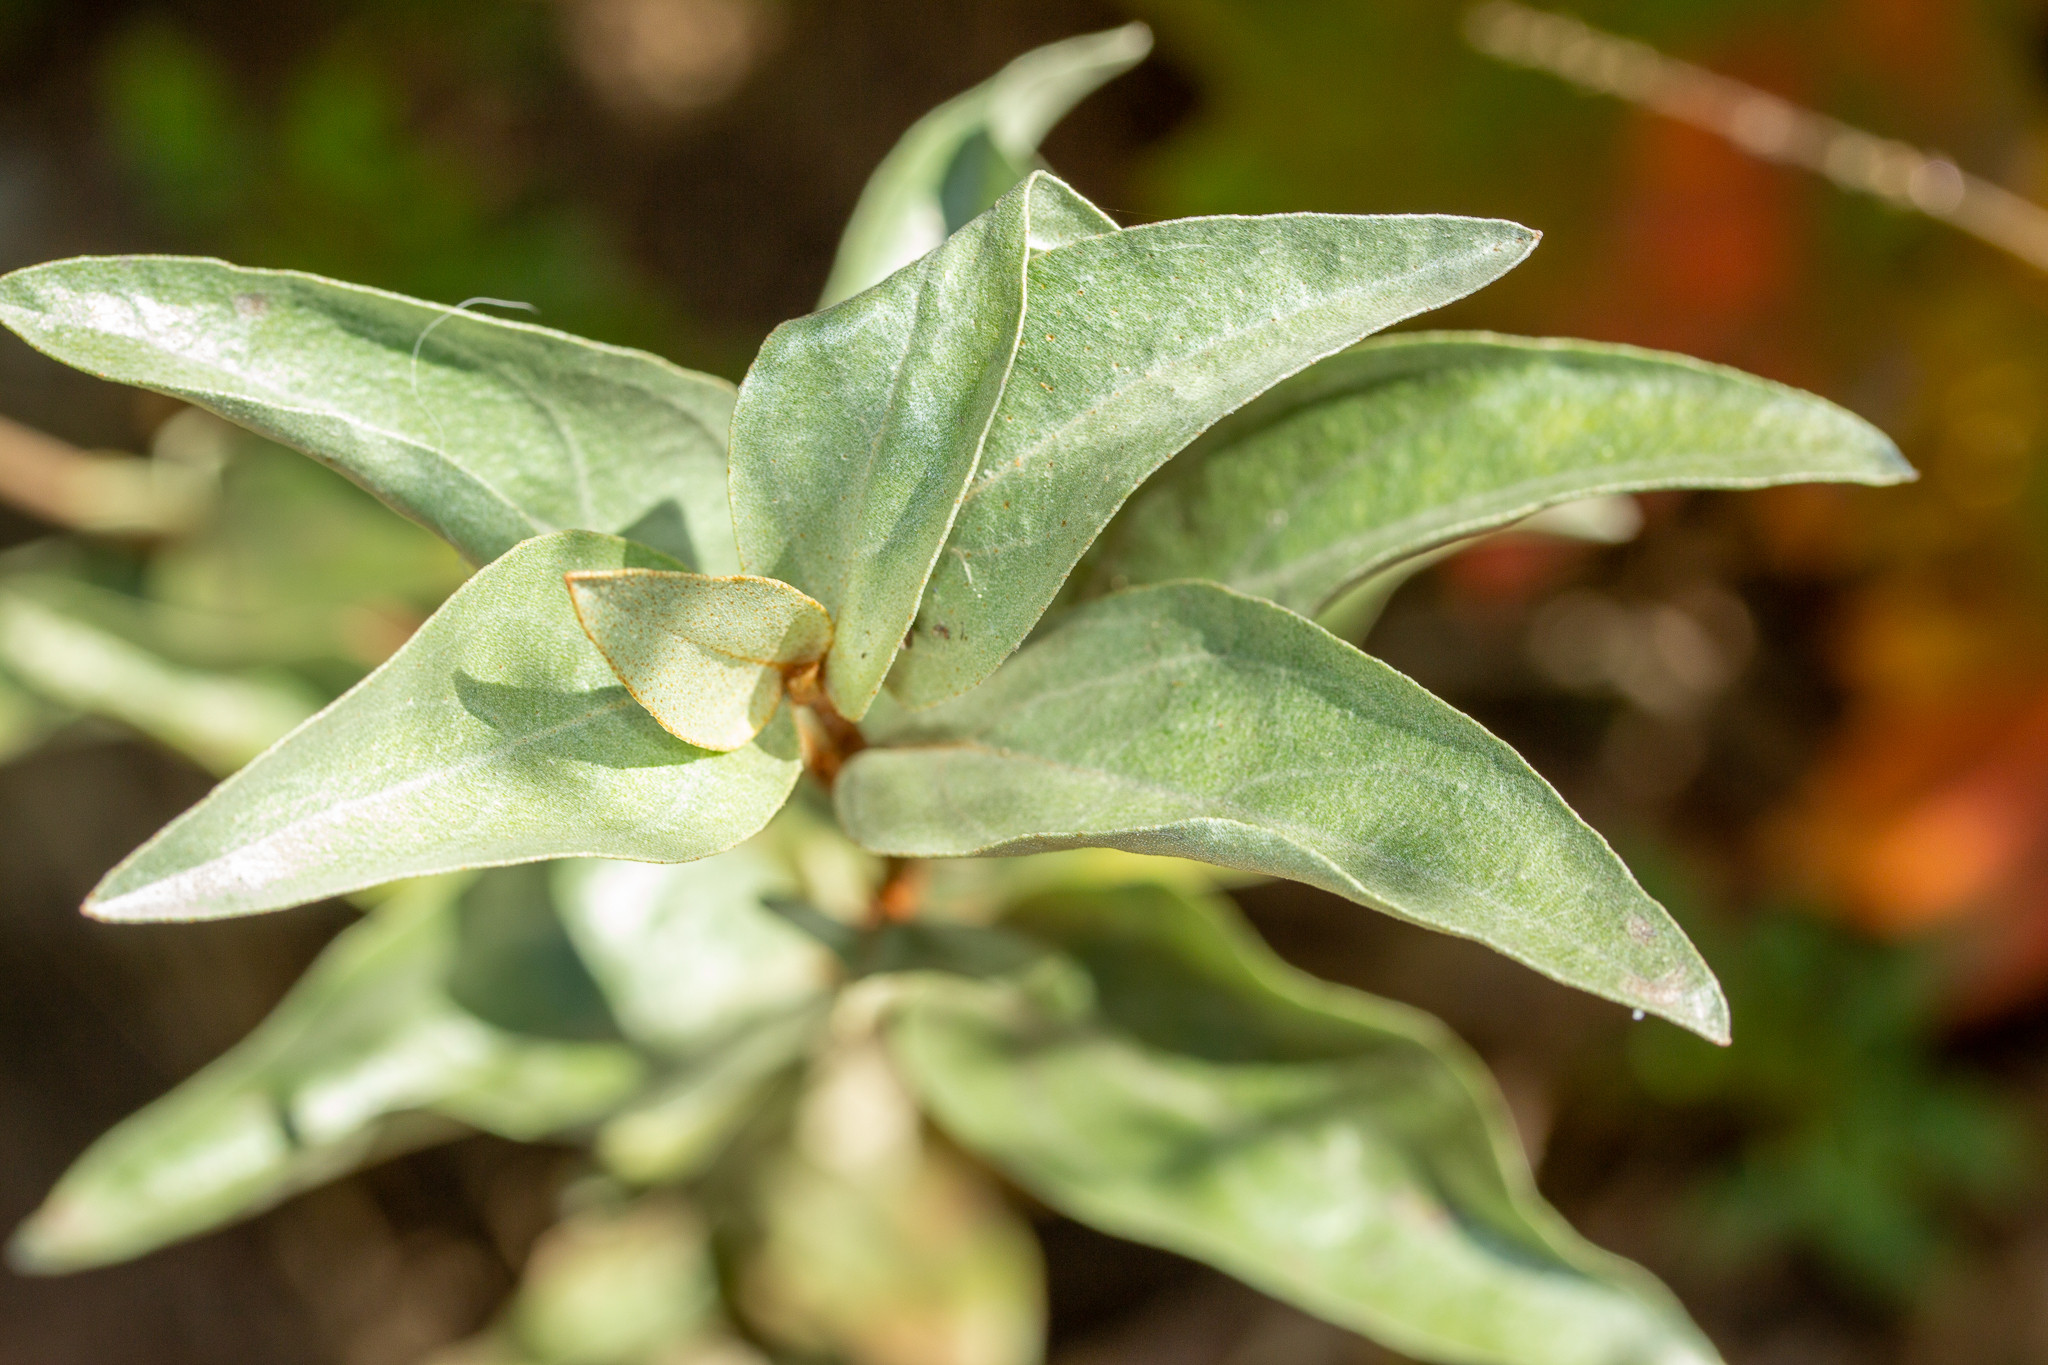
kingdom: Plantae
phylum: Tracheophyta
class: Magnoliopsida
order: Rosales
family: Elaeagnaceae
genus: Elaeagnus
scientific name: Elaeagnus commutata
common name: Silverberry
